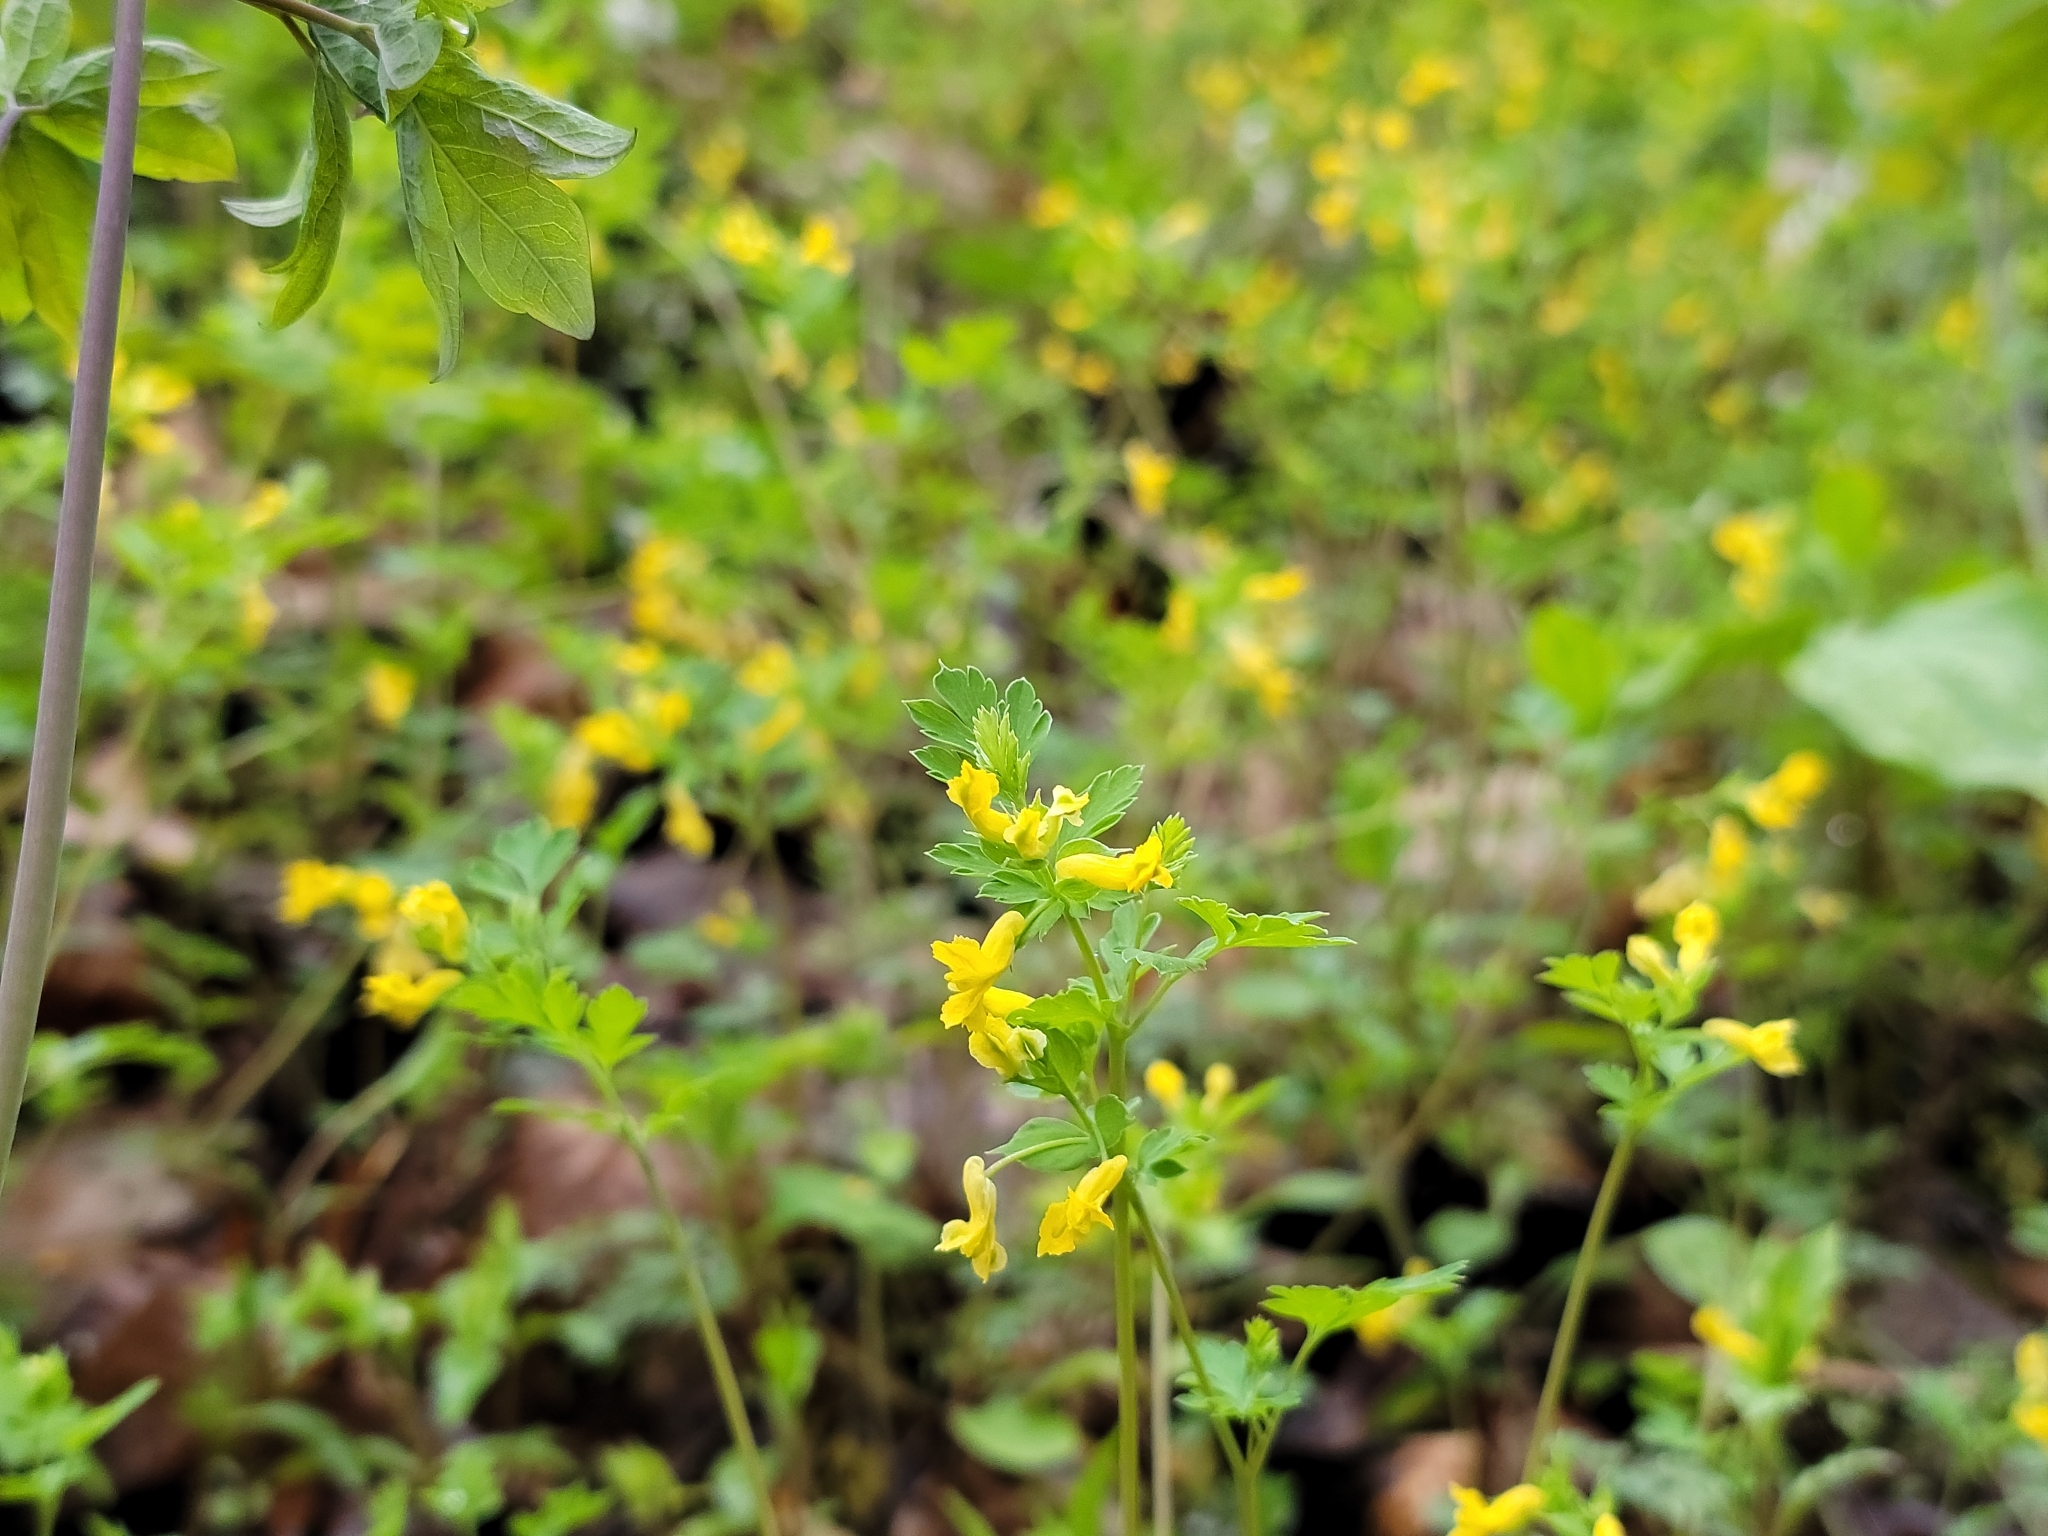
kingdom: Plantae
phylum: Tracheophyta
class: Magnoliopsida
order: Ranunculales
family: Papaveraceae
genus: Corydalis
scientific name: Corydalis flavula
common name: Yellow corydalis
